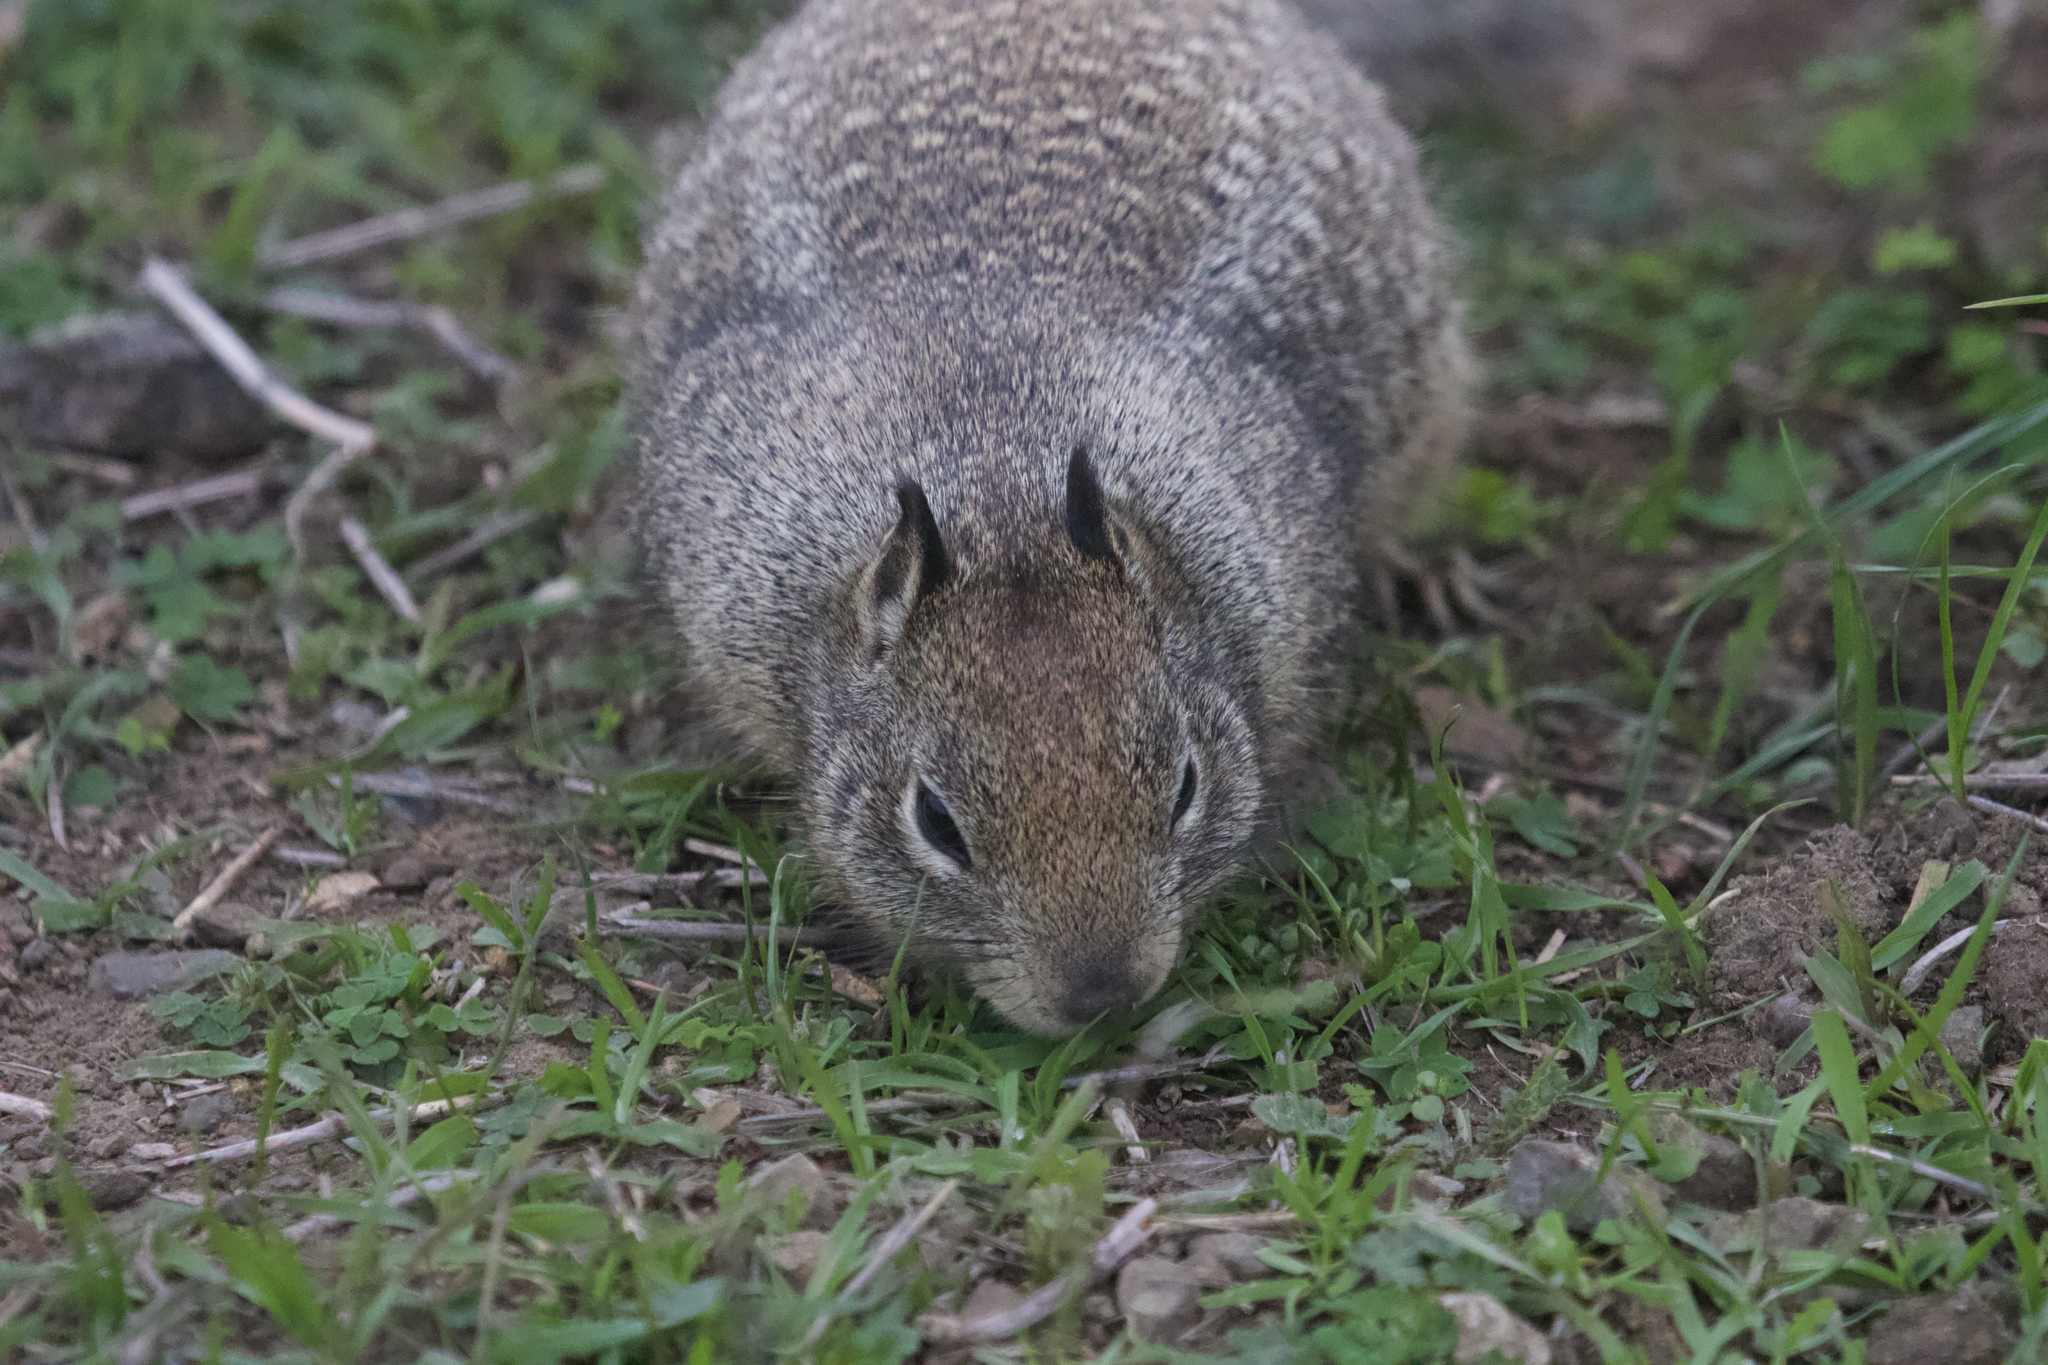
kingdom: Animalia
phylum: Chordata
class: Mammalia
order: Rodentia
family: Sciuridae
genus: Otospermophilus
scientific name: Otospermophilus beecheyi
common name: California ground squirrel
